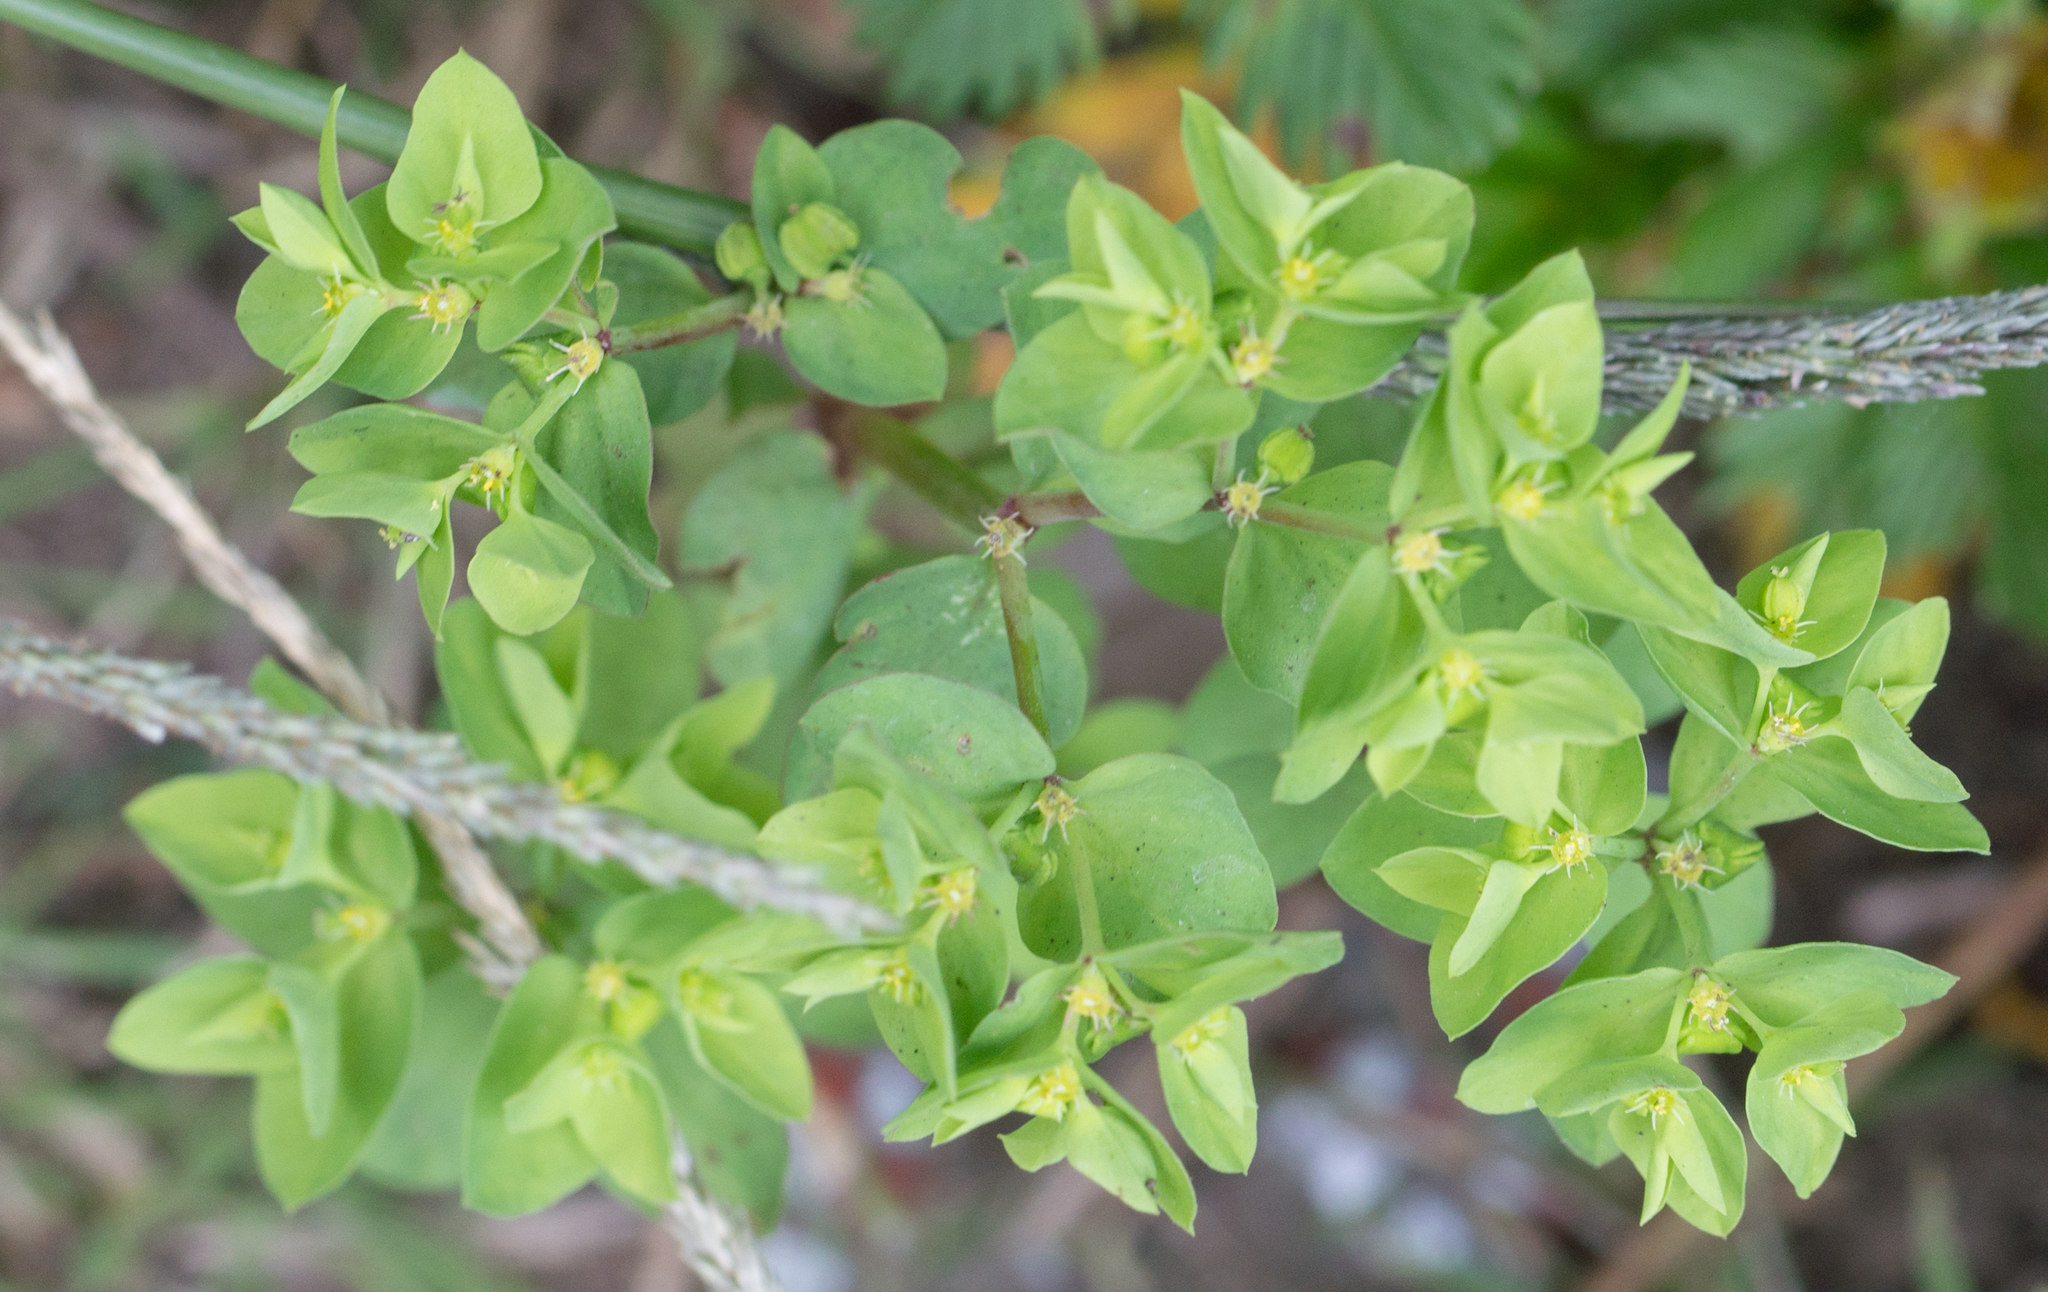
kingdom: Plantae
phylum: Tracheophyta
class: Magnoliopsida
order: Malpighiales
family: Euphorbiaceae
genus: Euphorbia
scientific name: Euphorbia peplus
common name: Petty spurge
